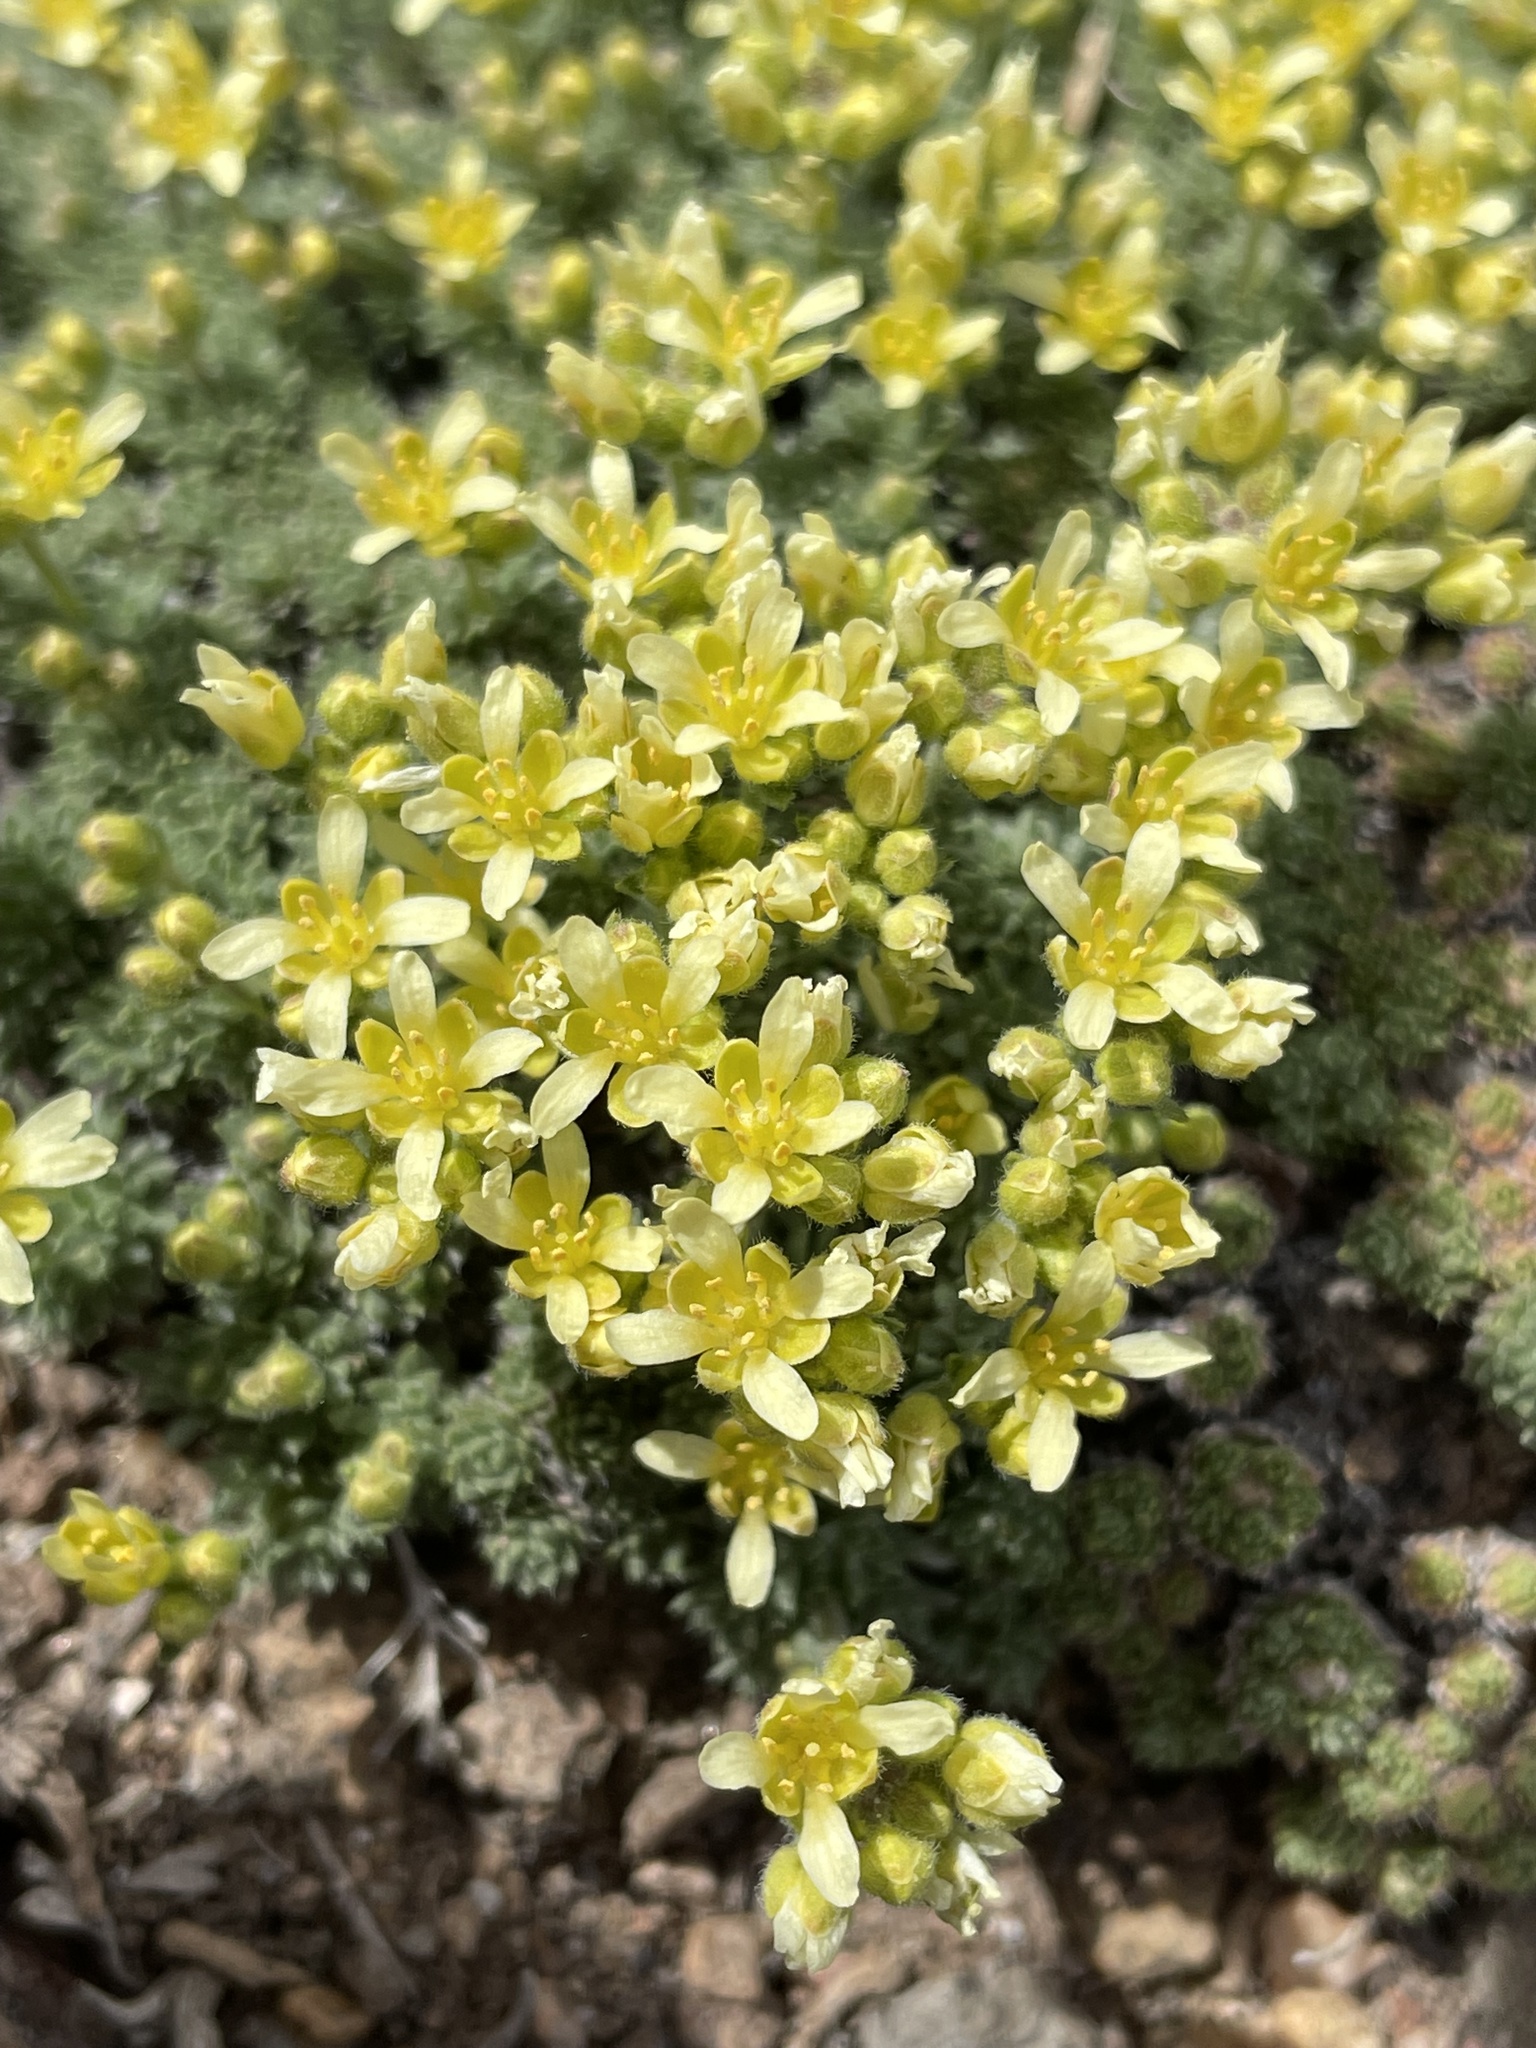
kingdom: Plantae
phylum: Tracheophyta
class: Magnoliopsida
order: Brassicales
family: Brassicaceae
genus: Cusickiella
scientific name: Cusickiella quadricostata
